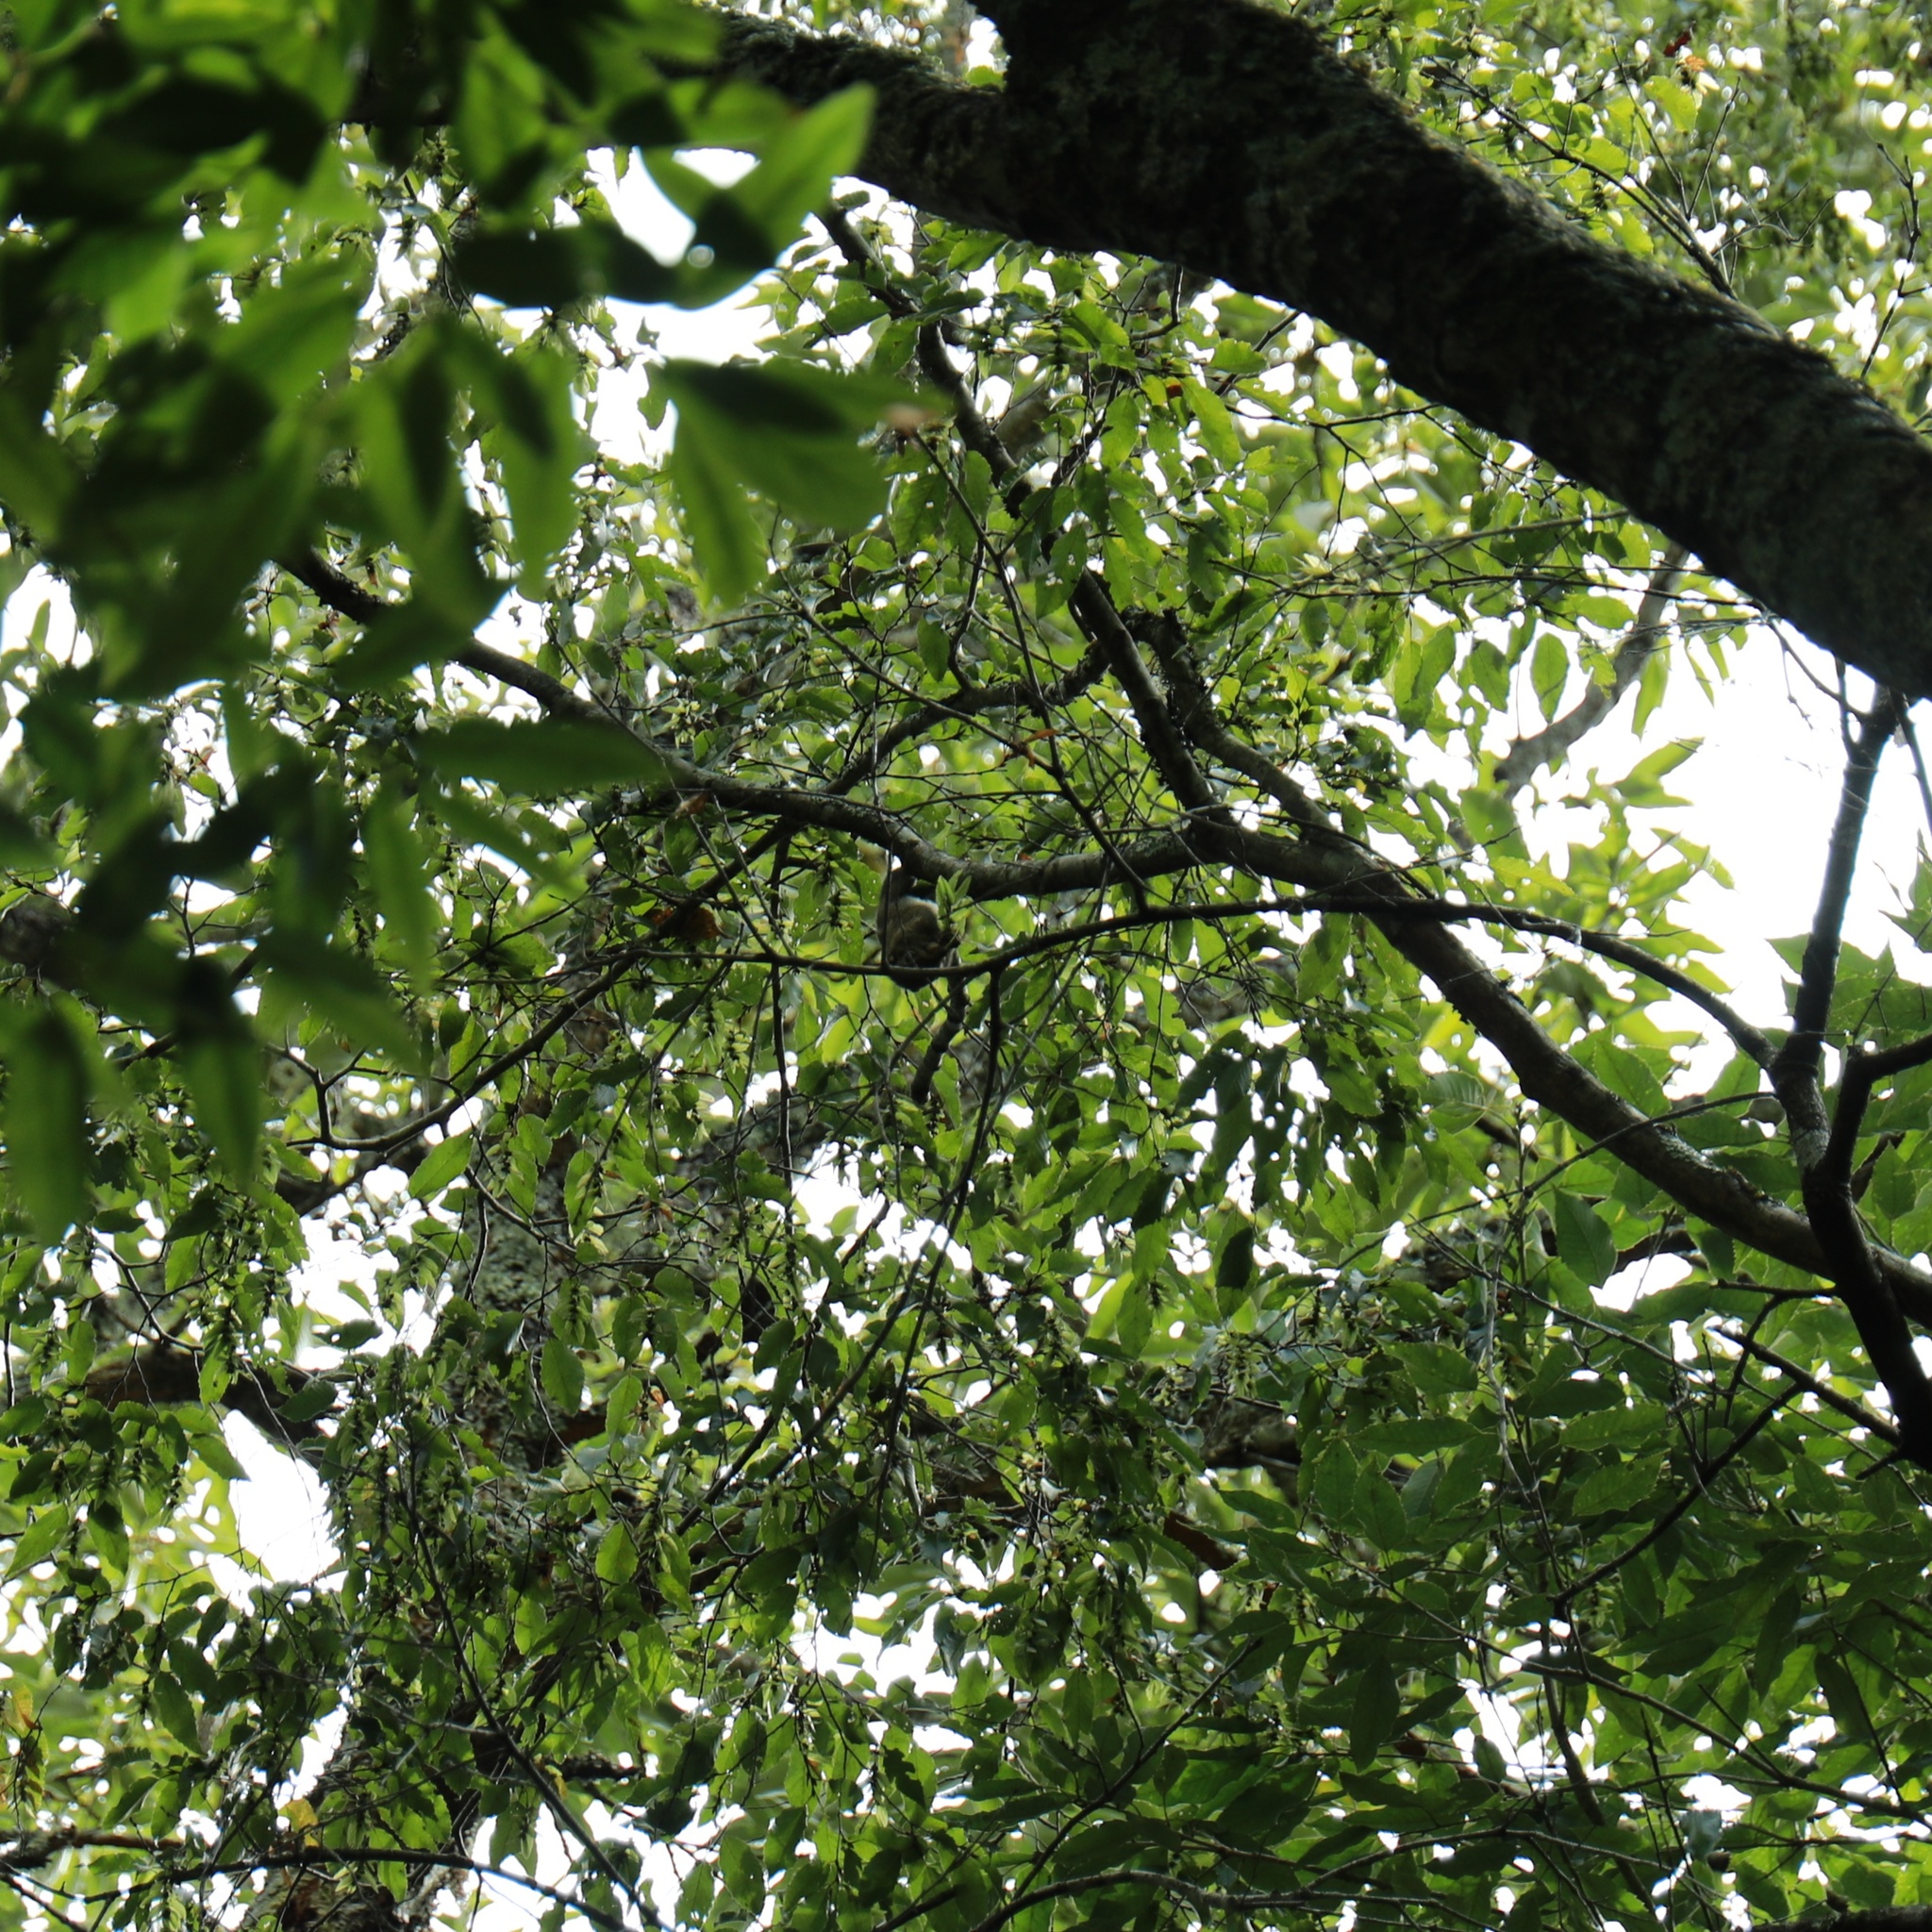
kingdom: Animalia
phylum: Chordata
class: Mammalia
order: Rodentia
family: Sciuridae
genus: Tamiops
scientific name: Tamiops maritimus
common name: Maritime striped squirrel
